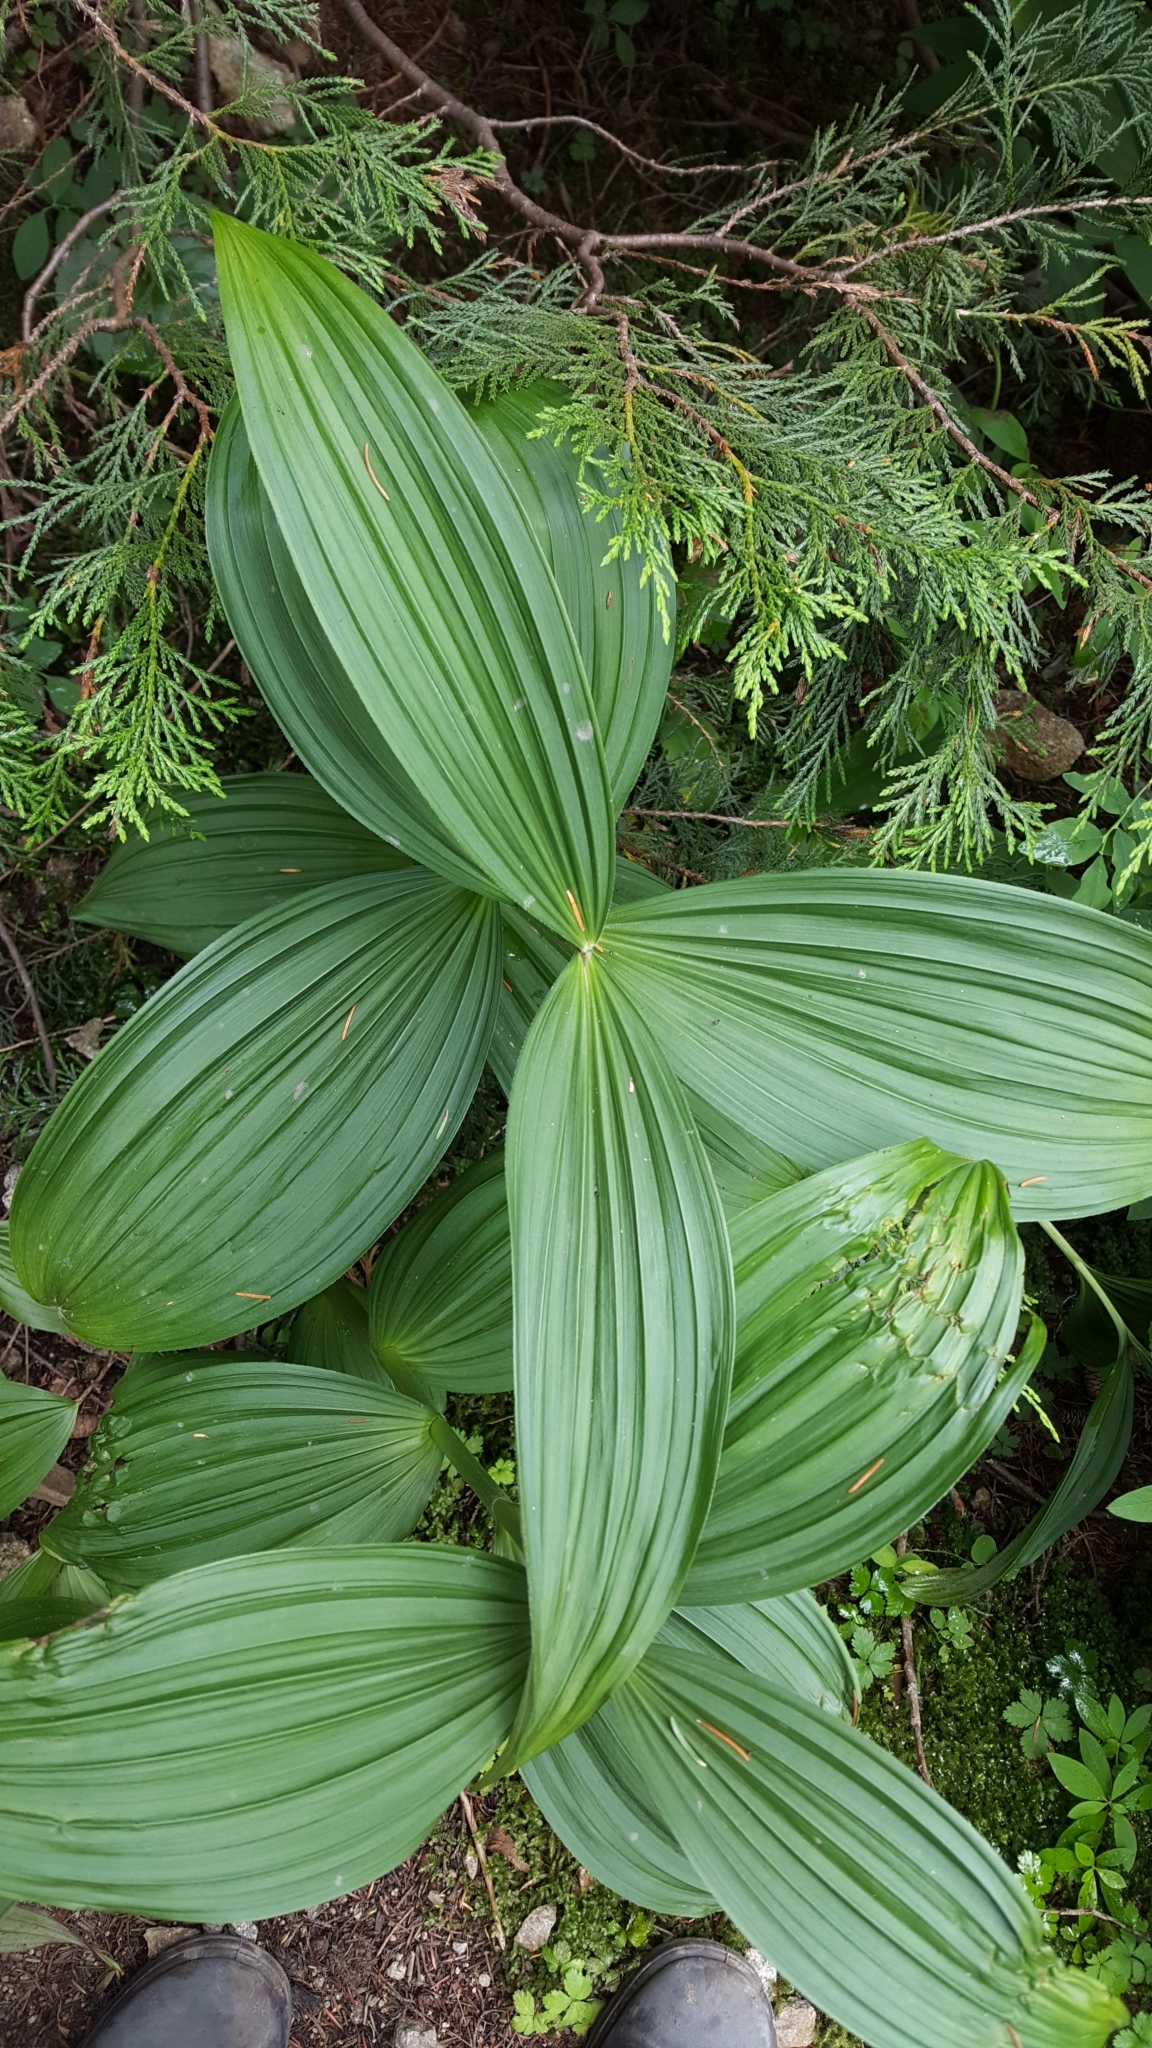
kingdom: Plantae
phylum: Tracheophyta
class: Liliopsida
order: Liliales
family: Melanthiaceae
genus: Veratrum
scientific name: Veratrum viride
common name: American false hellebore
